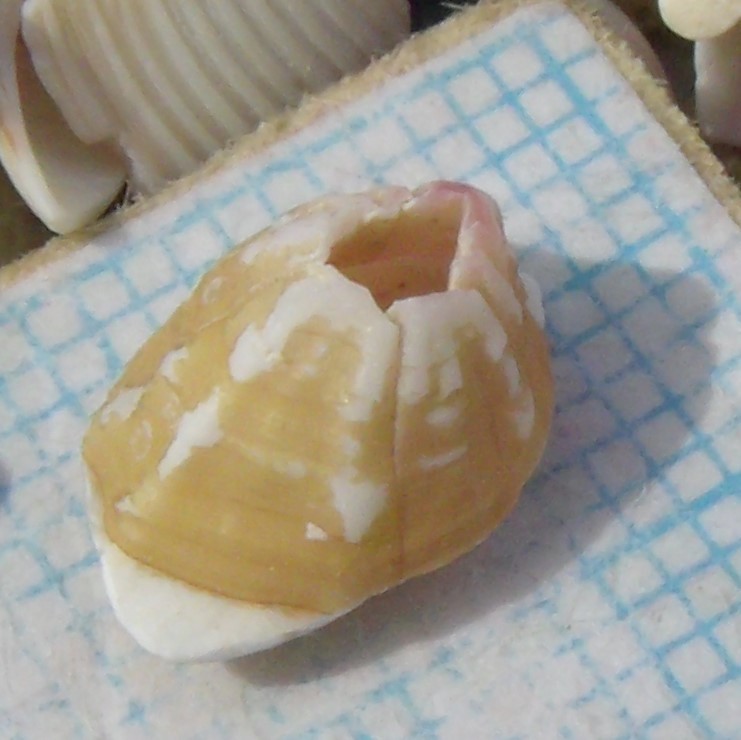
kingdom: Animalia
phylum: Arthropoda
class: Maxillopoda
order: Sessilia
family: Balanidae
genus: Notobalanus
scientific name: Notobalanus vestitus
